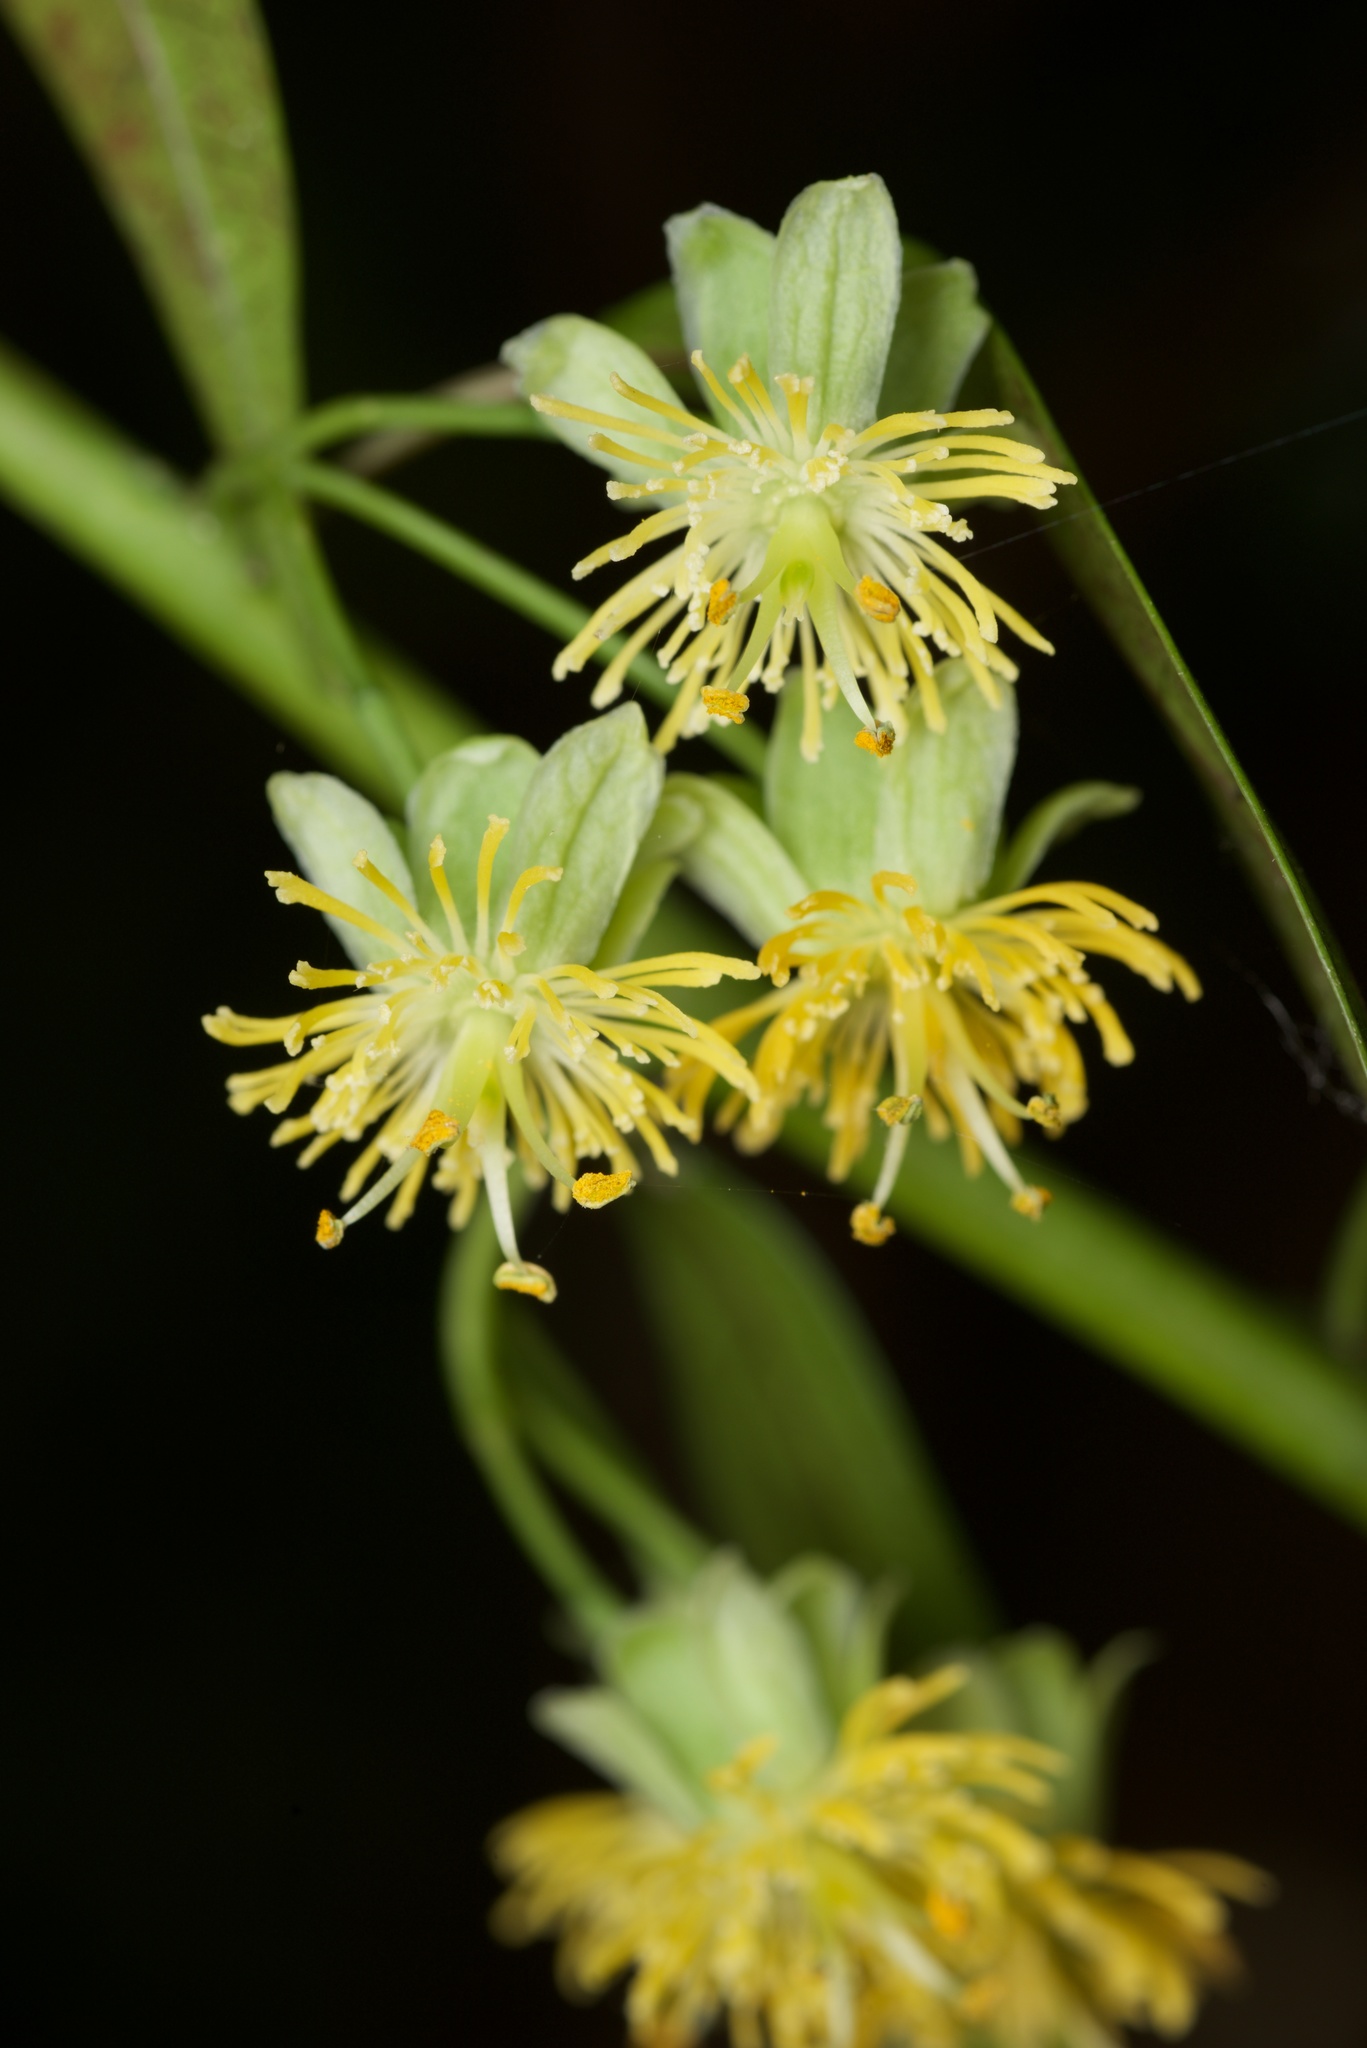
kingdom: Plantae
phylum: Tracheophyta
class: Magnoliopsida
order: Malpighiales
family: Passifloraceae
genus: Passiflora
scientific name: Passiflora tetrandra
